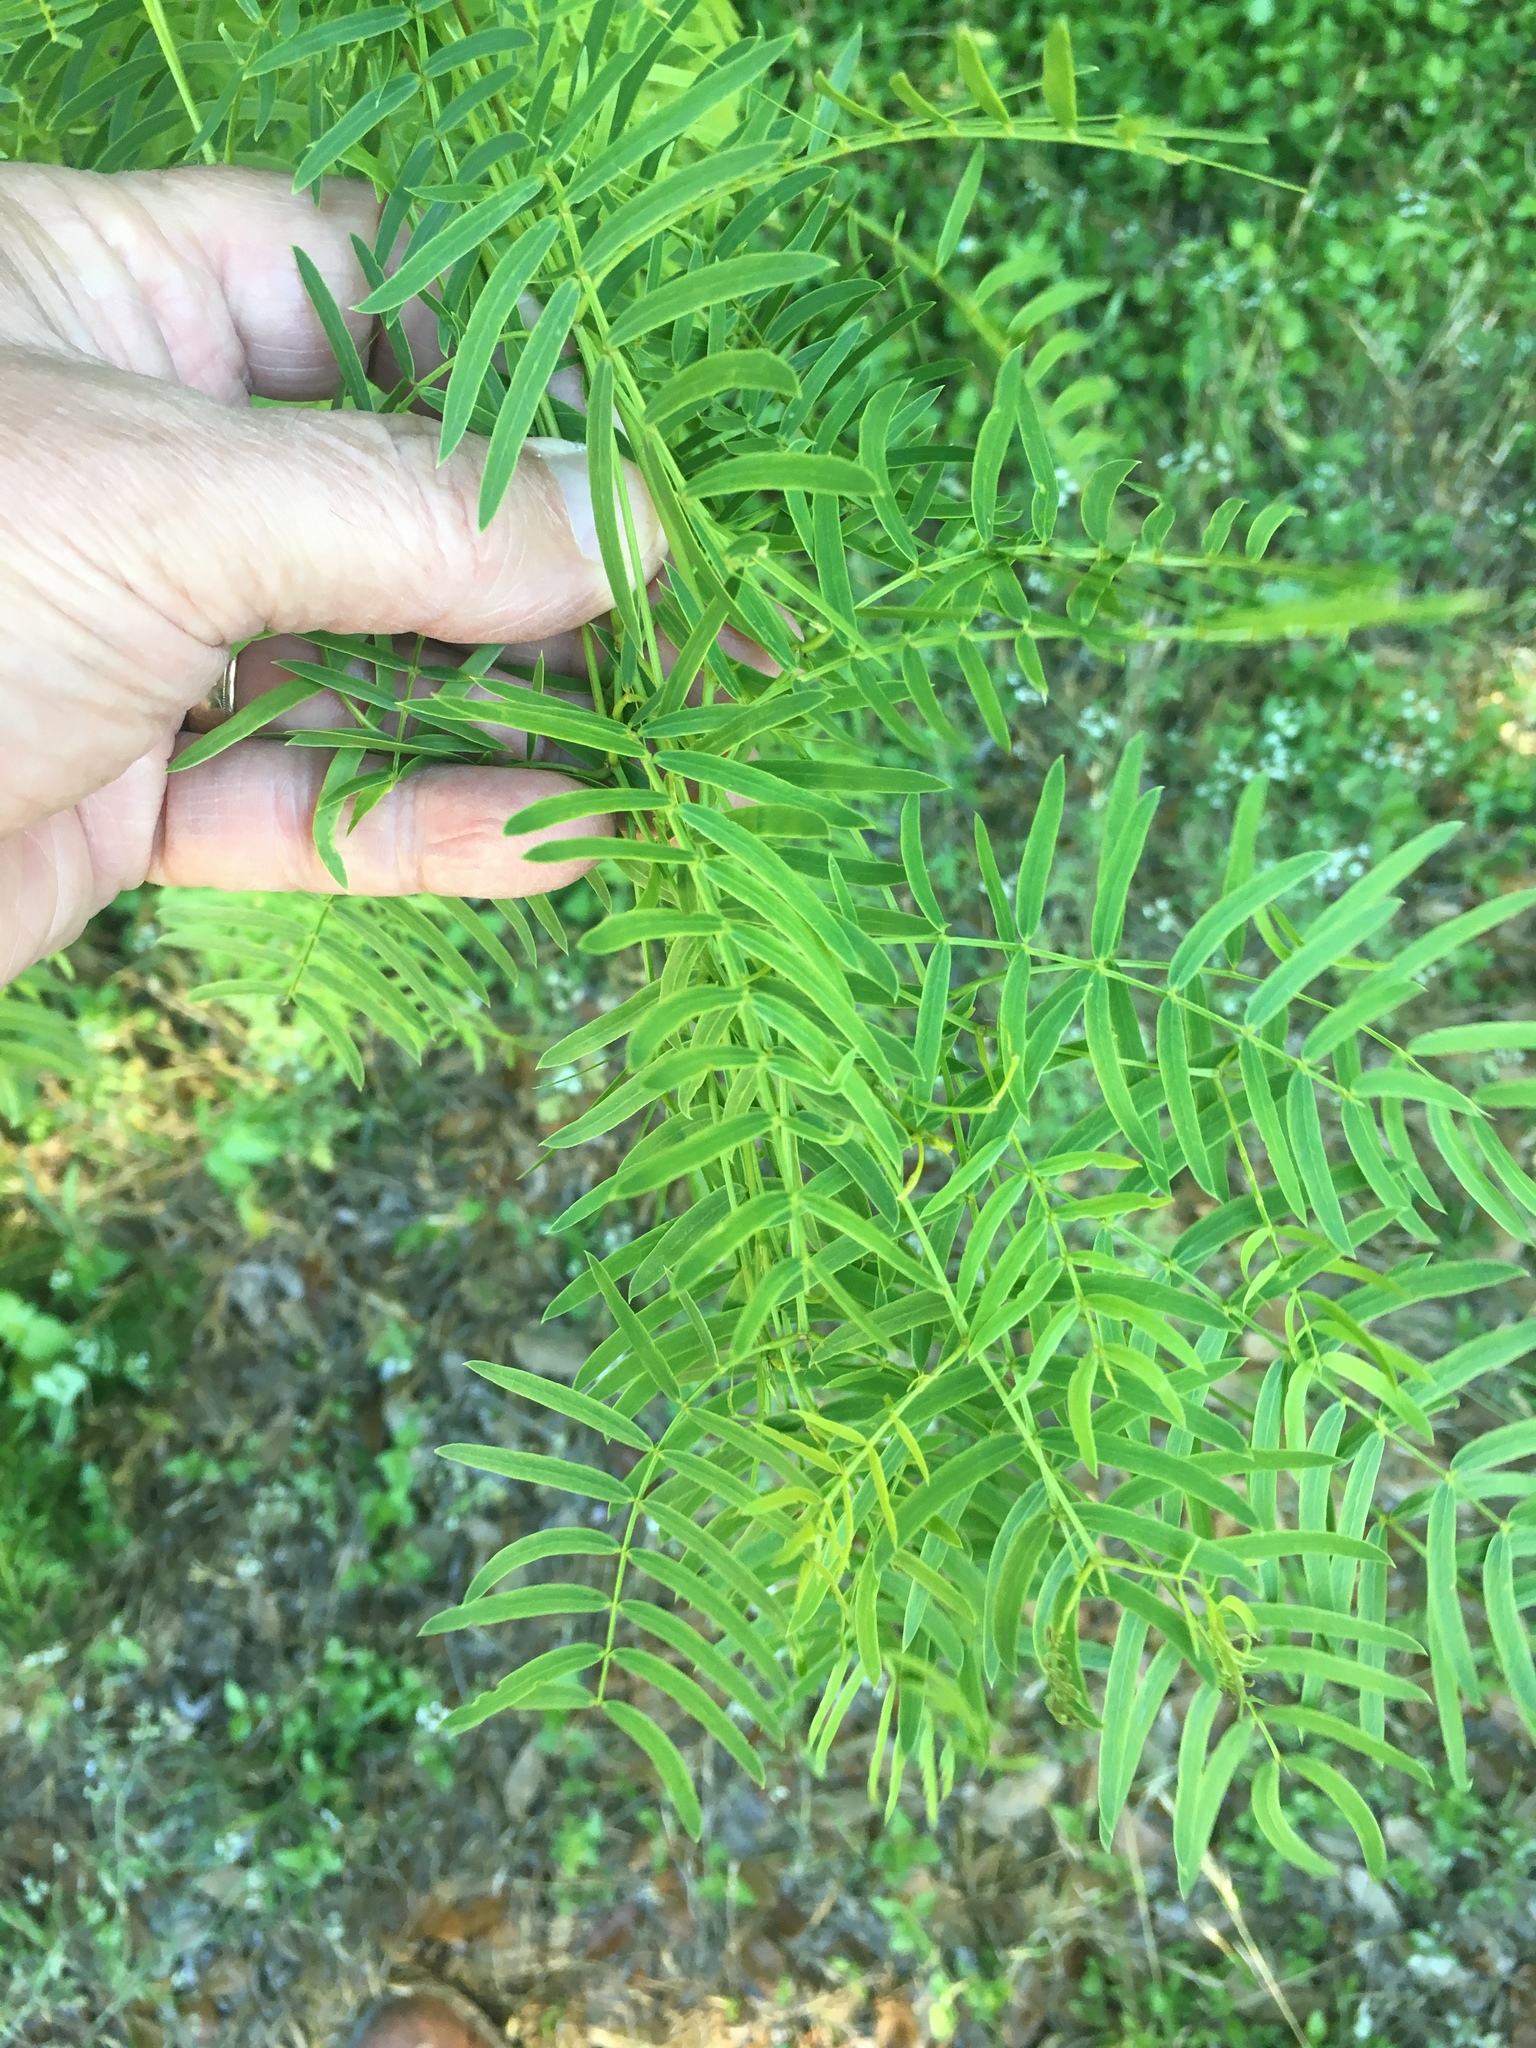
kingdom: Plantae
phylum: Tracheophyta
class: Magnoliopsida
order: Fabales
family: Fabaceae
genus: Prosopis
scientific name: Prosopis glandulosa
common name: Honey mesquite
